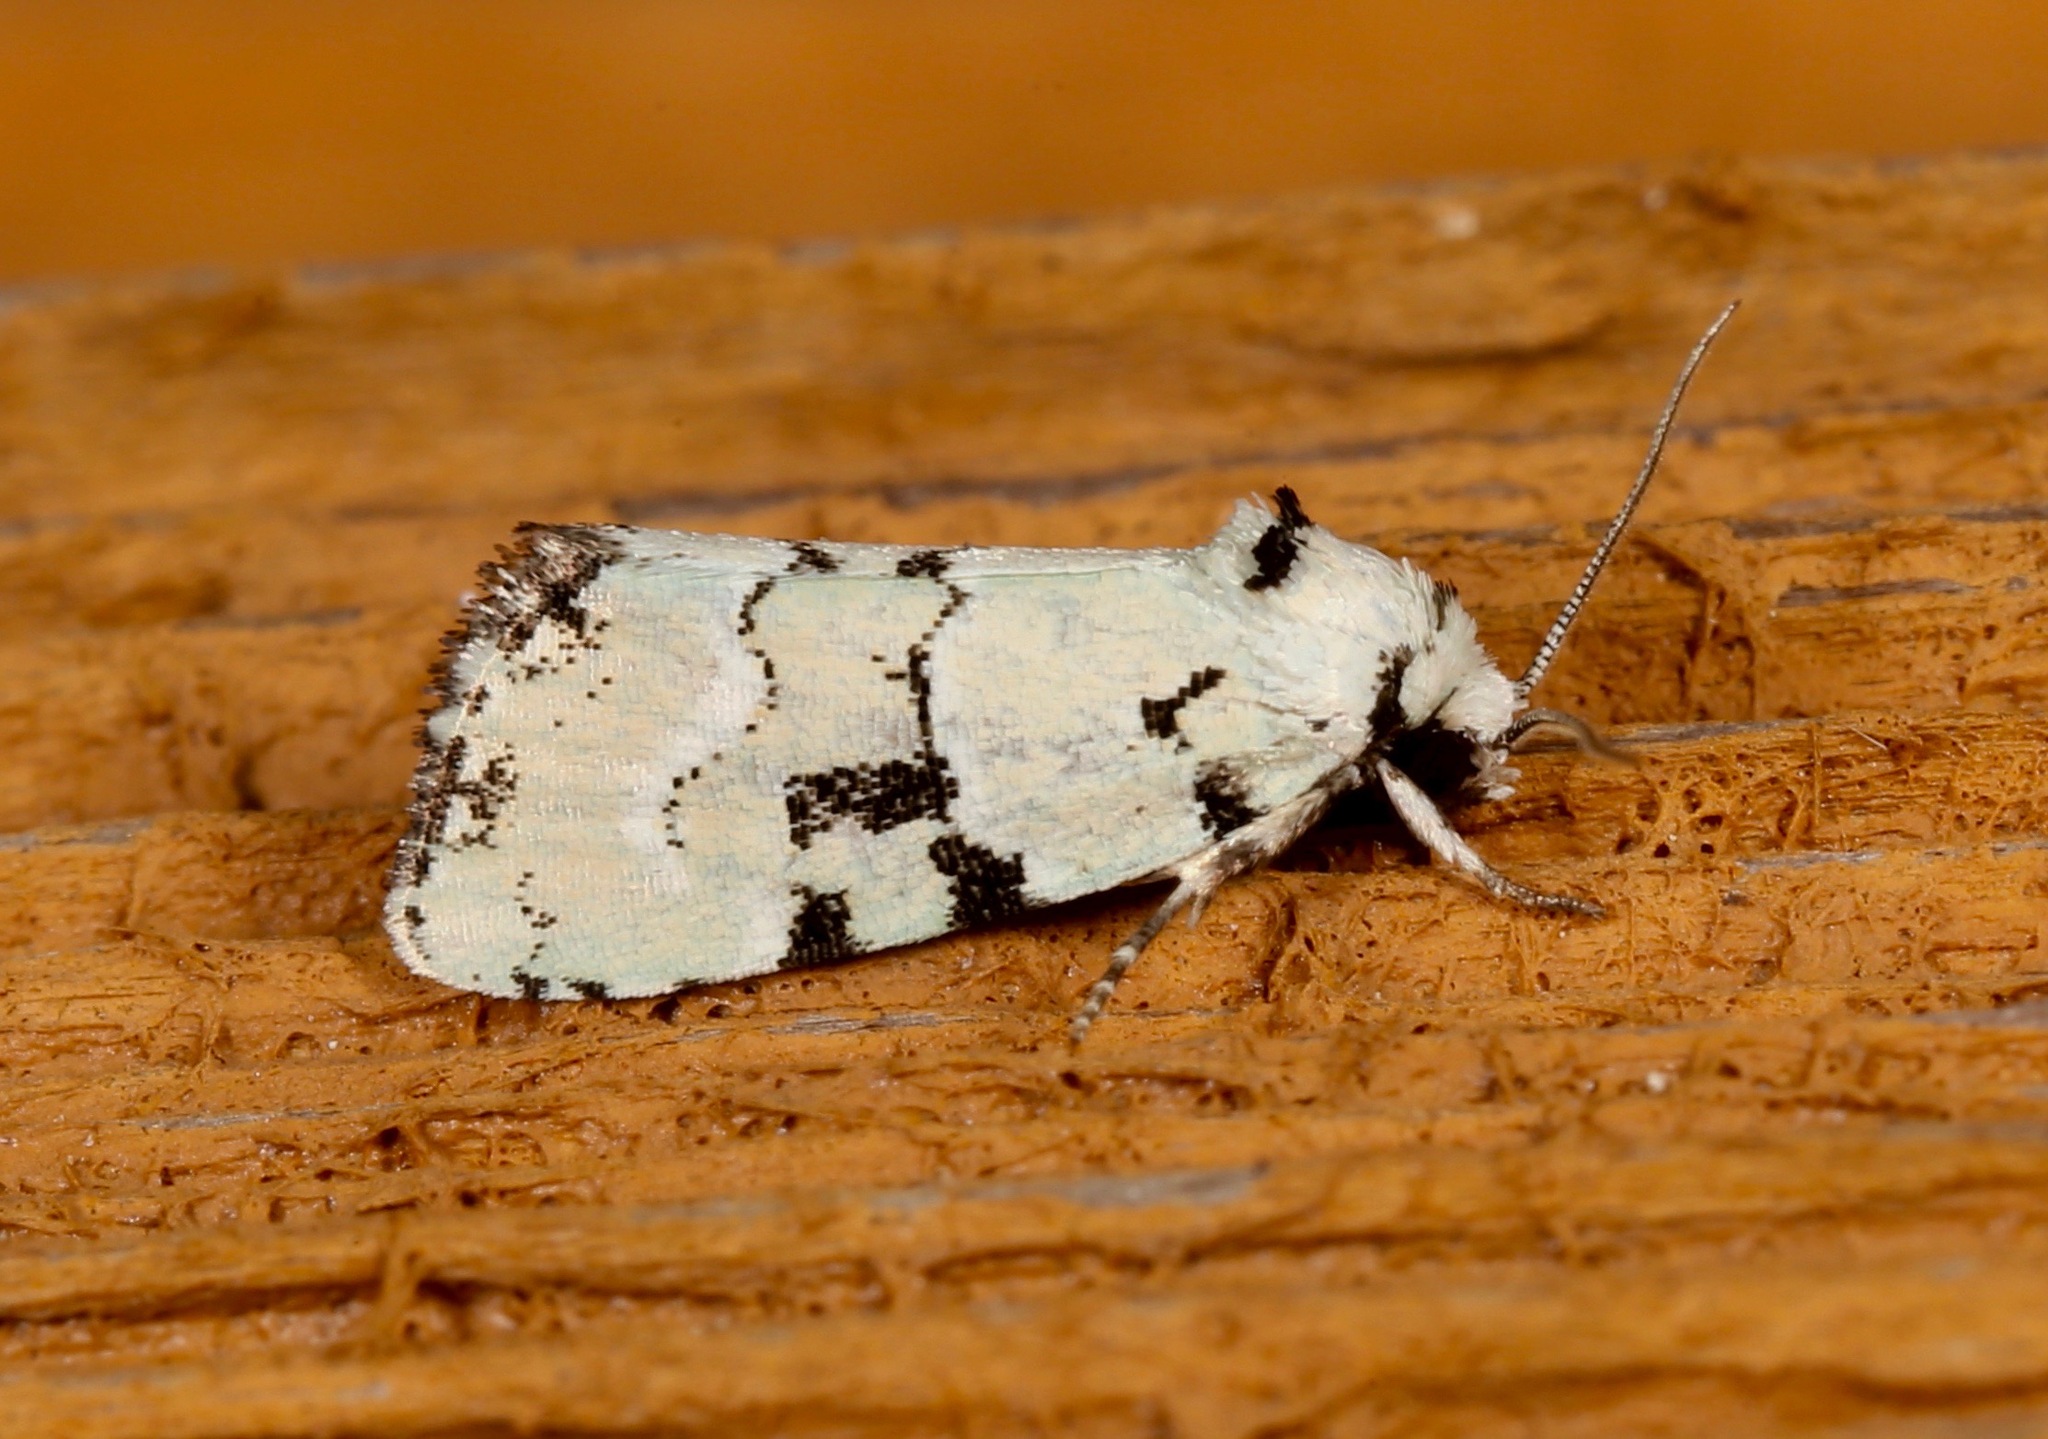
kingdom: Animalia
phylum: Arthropoda
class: Insecta
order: Lepidoptera
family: Noctuidae
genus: Elaphria
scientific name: Elaphria cyanympha
